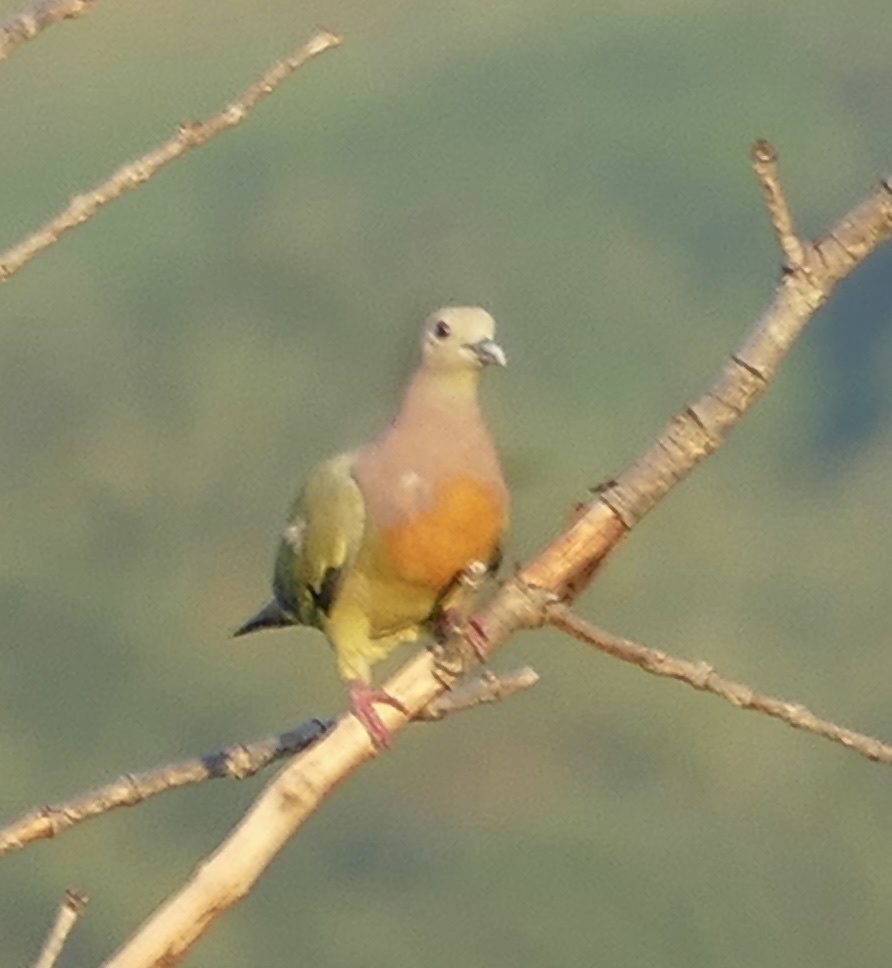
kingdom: Animalia
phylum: Chordata
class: Aves
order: Columbiformes
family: Columbidae
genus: Treron
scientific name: Treron vernans
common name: Pink-necked green pigeon
